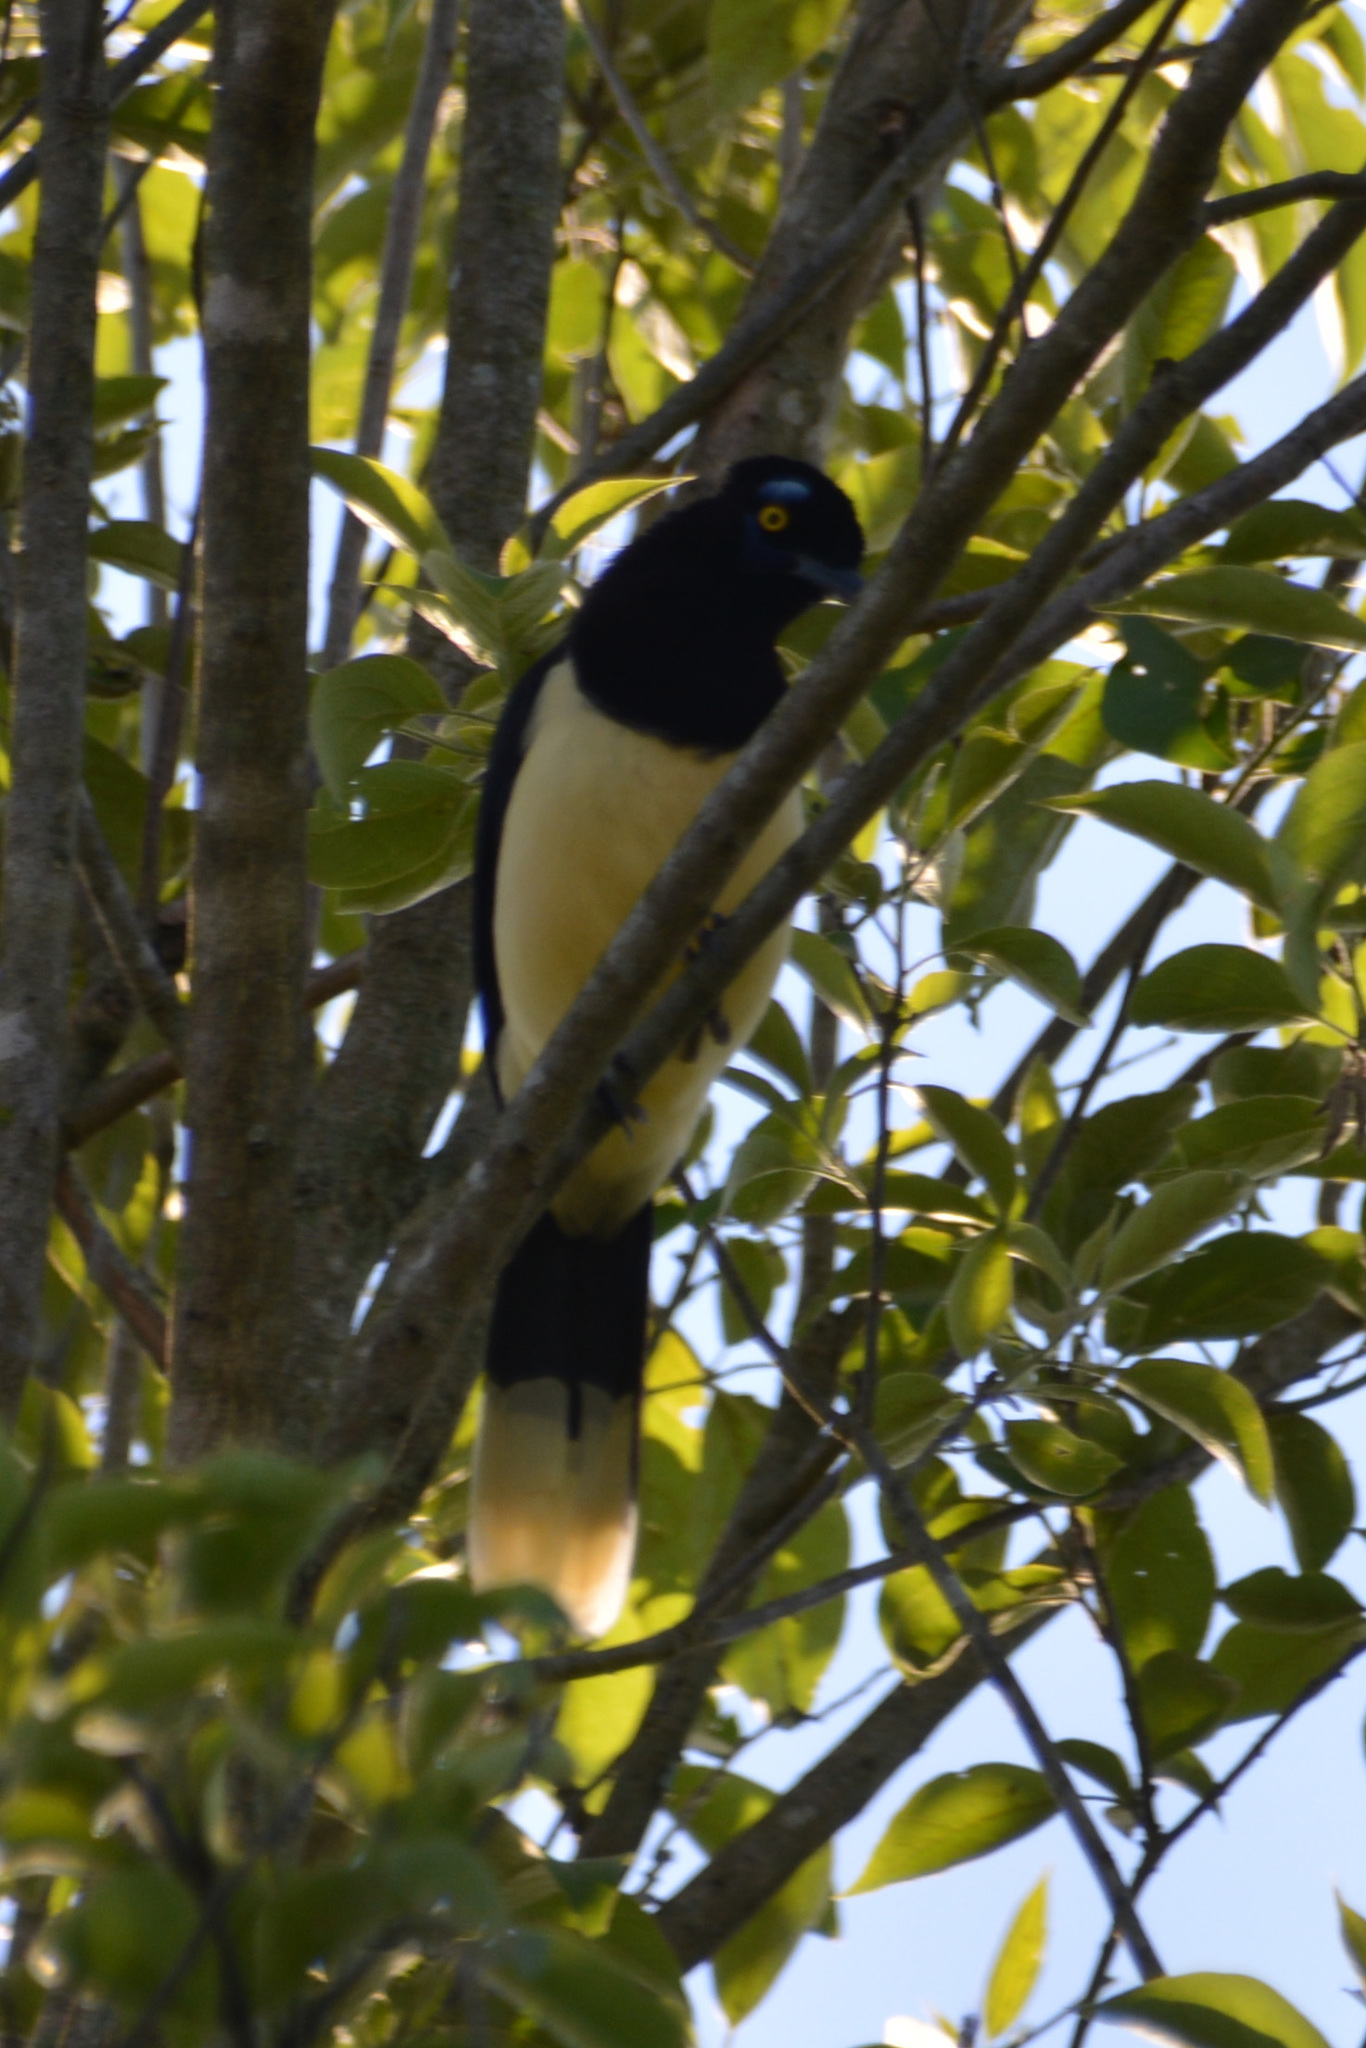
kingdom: Animalia
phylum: Chordata
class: Aves
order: Passeriformes
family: Corvidae
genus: Cyanocorax
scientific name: Cyanocorax chrysops
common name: Plush-crested jay
